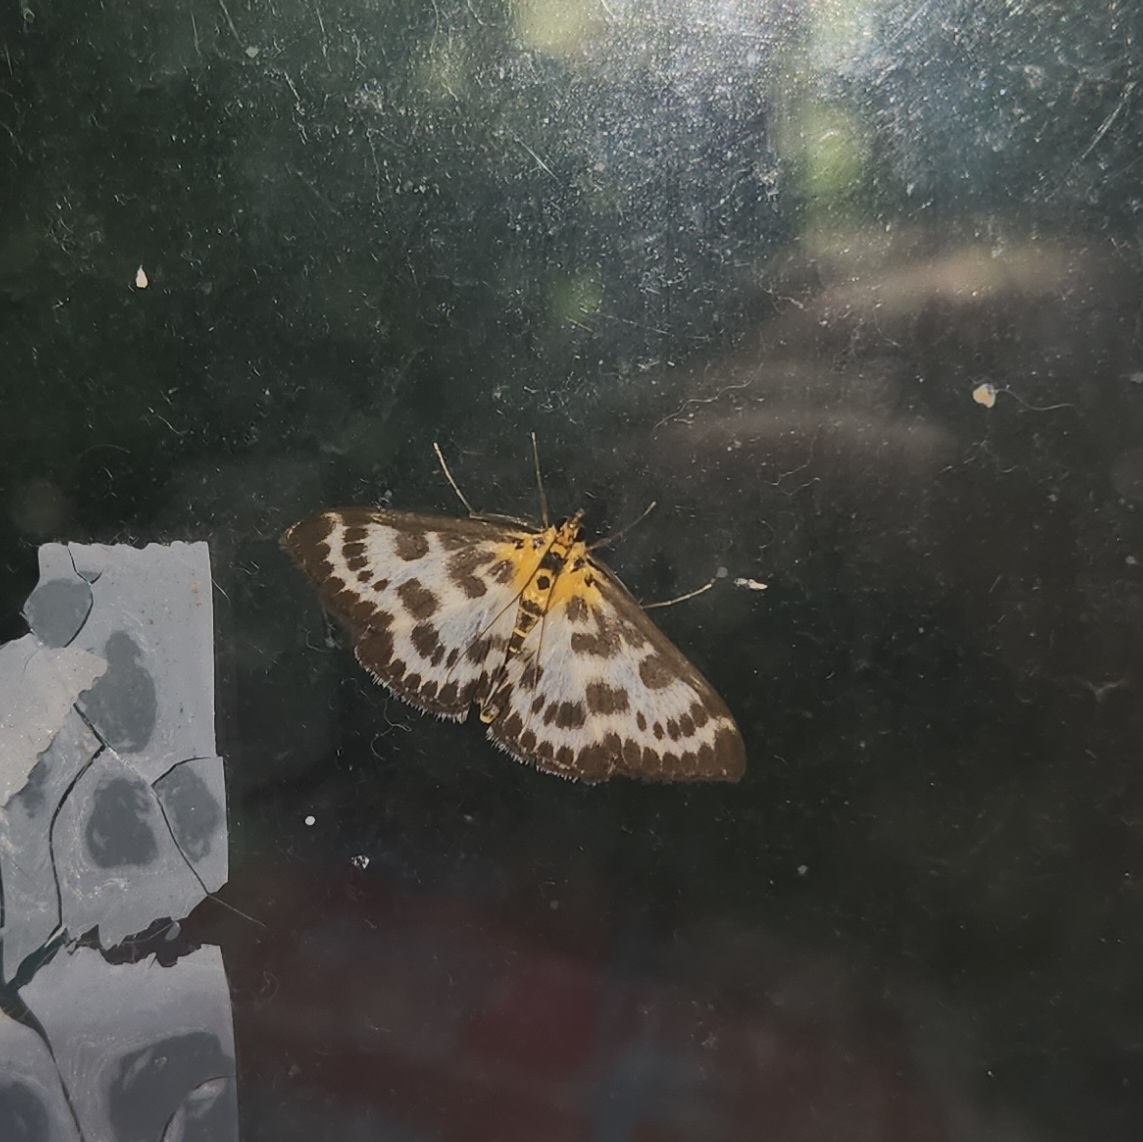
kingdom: Animalia
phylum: Arthropoda
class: Insecta
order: Lepidoptera
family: Crambidae
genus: Anania
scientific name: Anania hortulata
